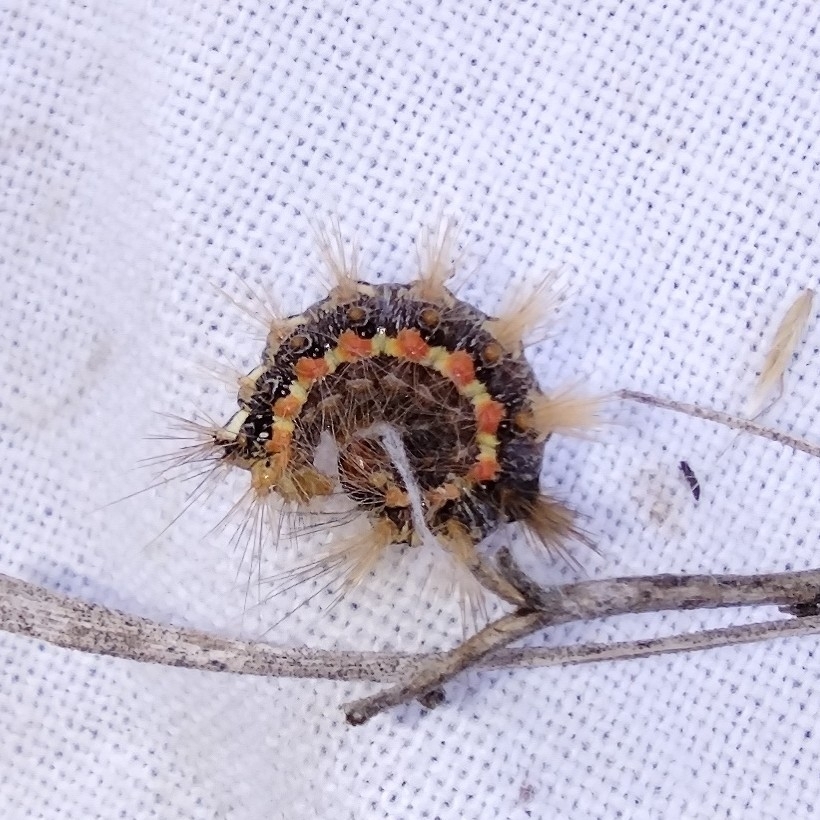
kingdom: Animalia
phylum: Arthropoda
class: Insecta
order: Lepidoptera
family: Noctuidae
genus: Acronicta
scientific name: Acronicta rumicis
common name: Knot grass
